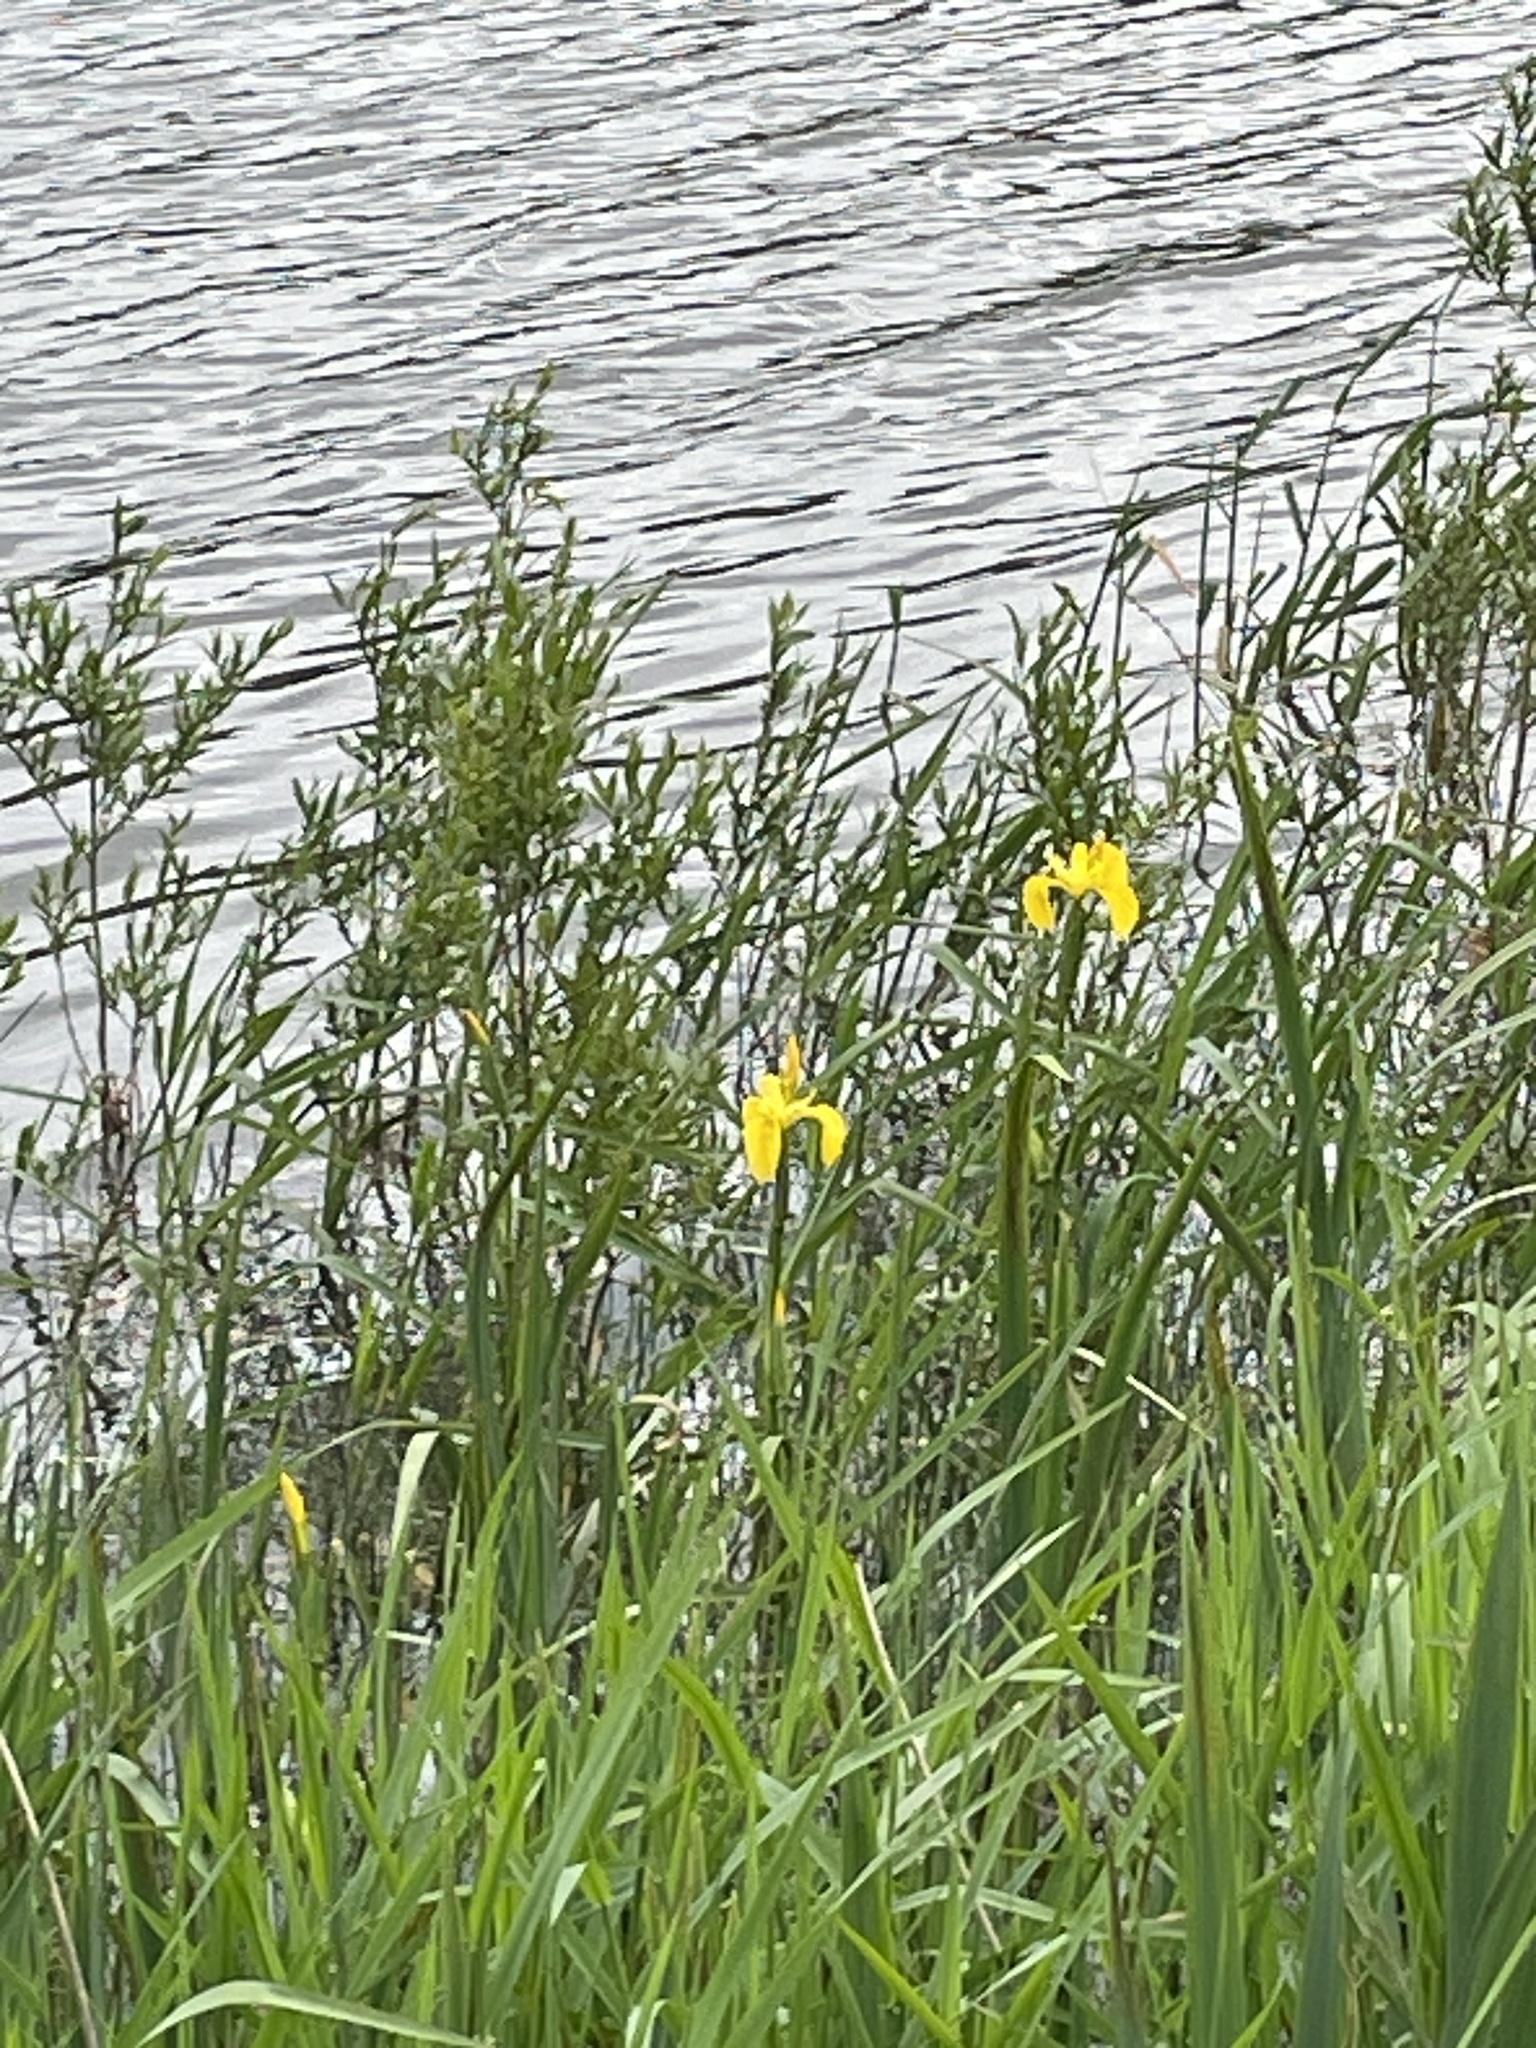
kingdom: Plantae
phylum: Tracheophyta
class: Liliopsida
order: Asparagales
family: Iridaceae
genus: Iris
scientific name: Iris pseudacorus
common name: Yellow flag
